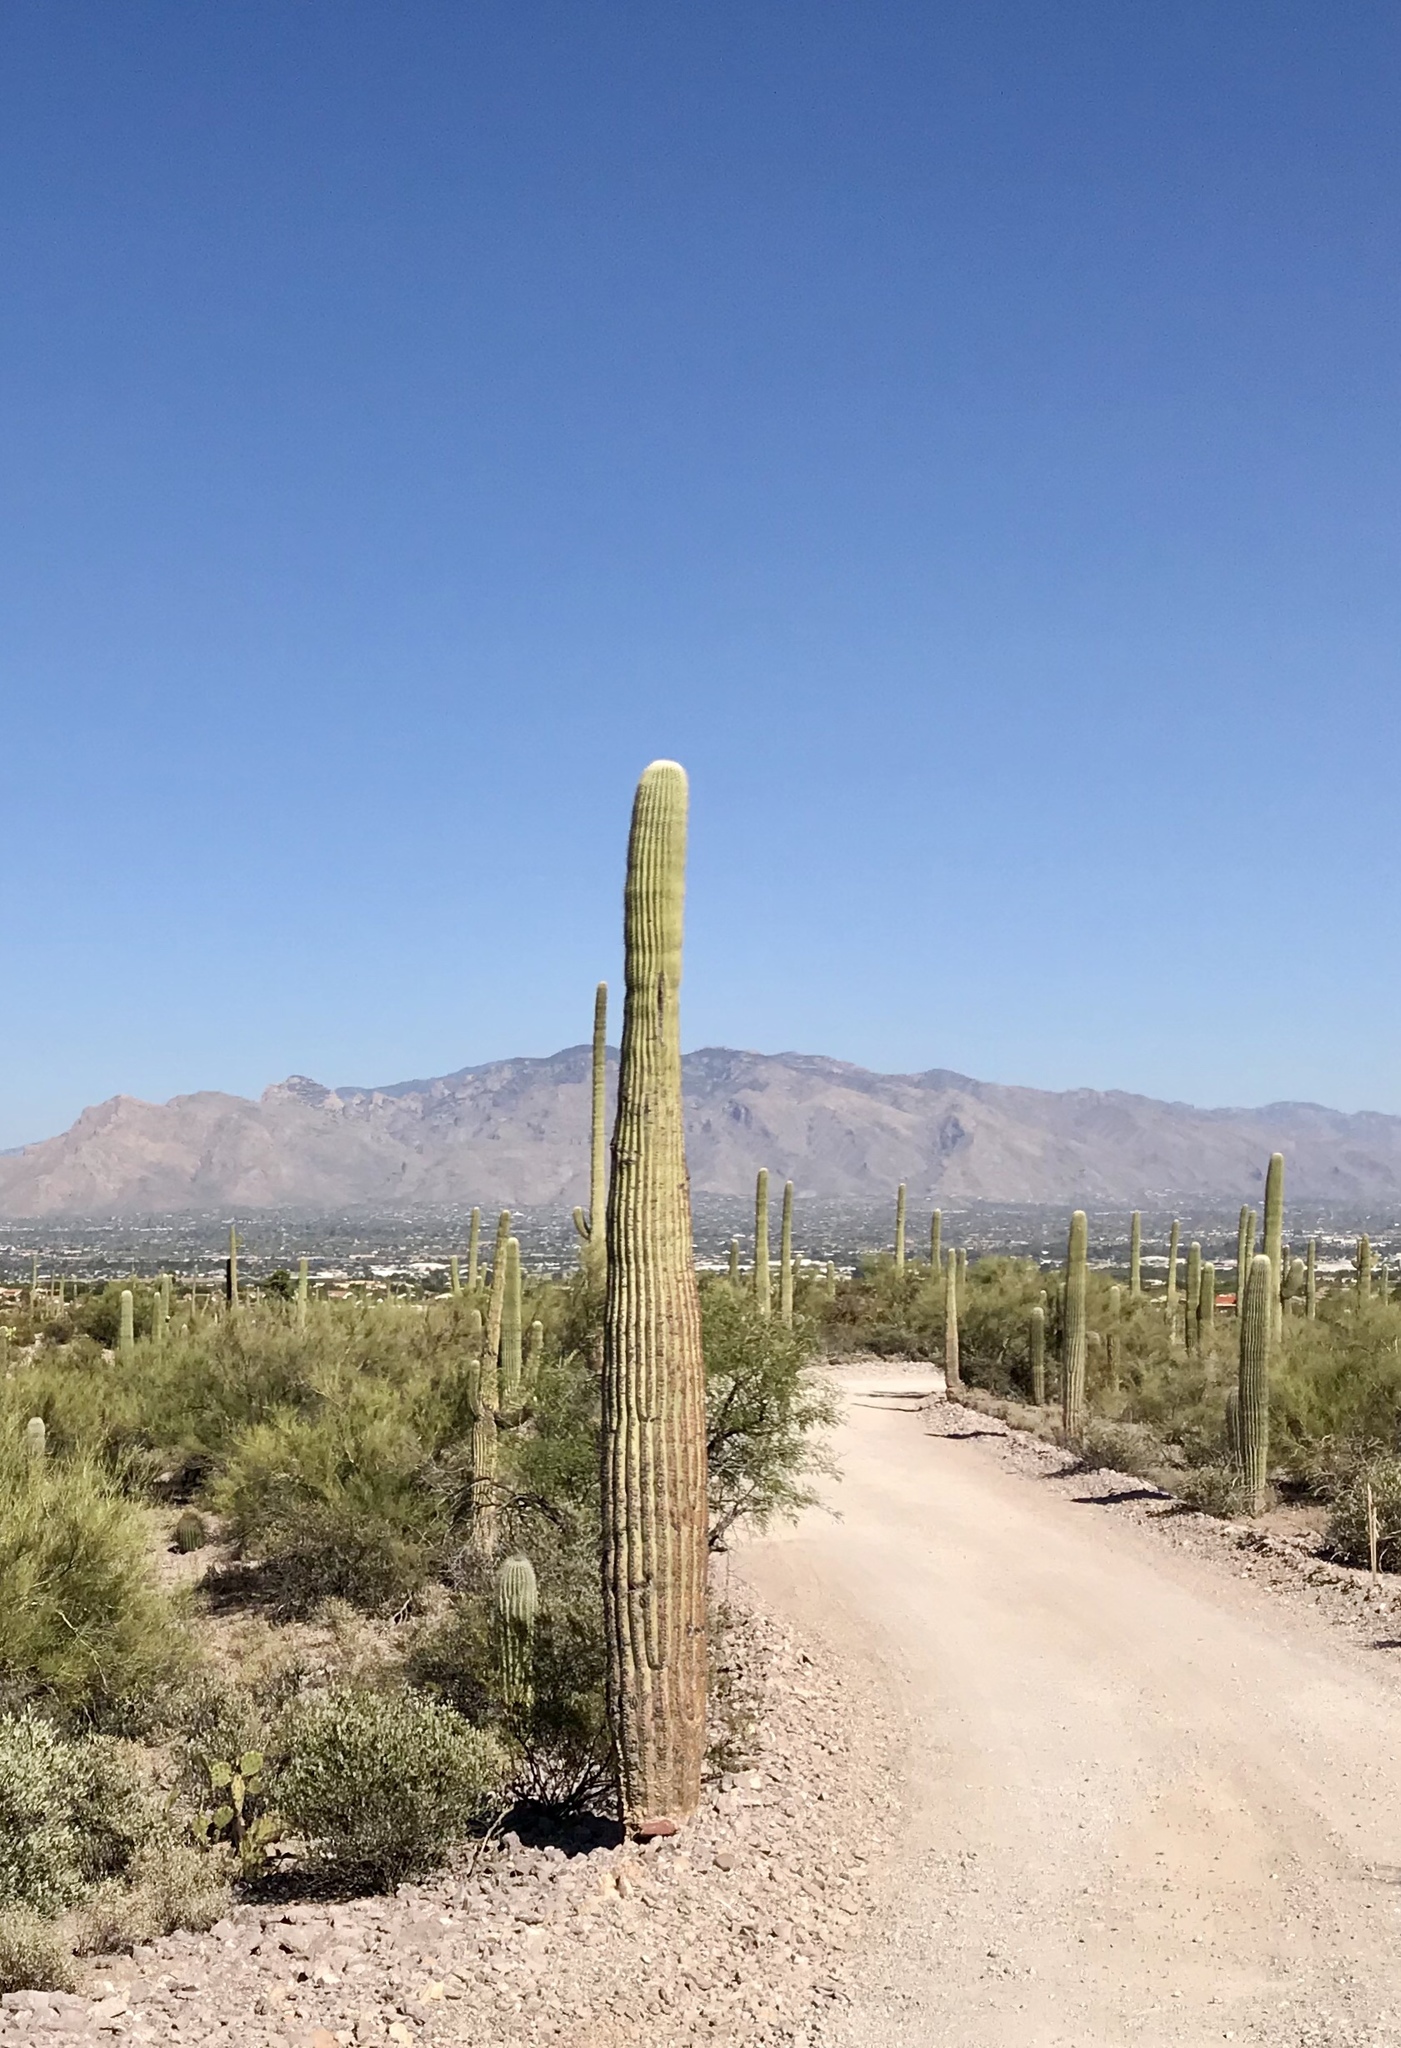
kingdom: Plantae
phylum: Tracheophyta
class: Magnoliopsida
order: Caryophyllales
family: Cactaceae
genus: Carnegiea
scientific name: Carnegiea gigantea
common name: Saguaro
